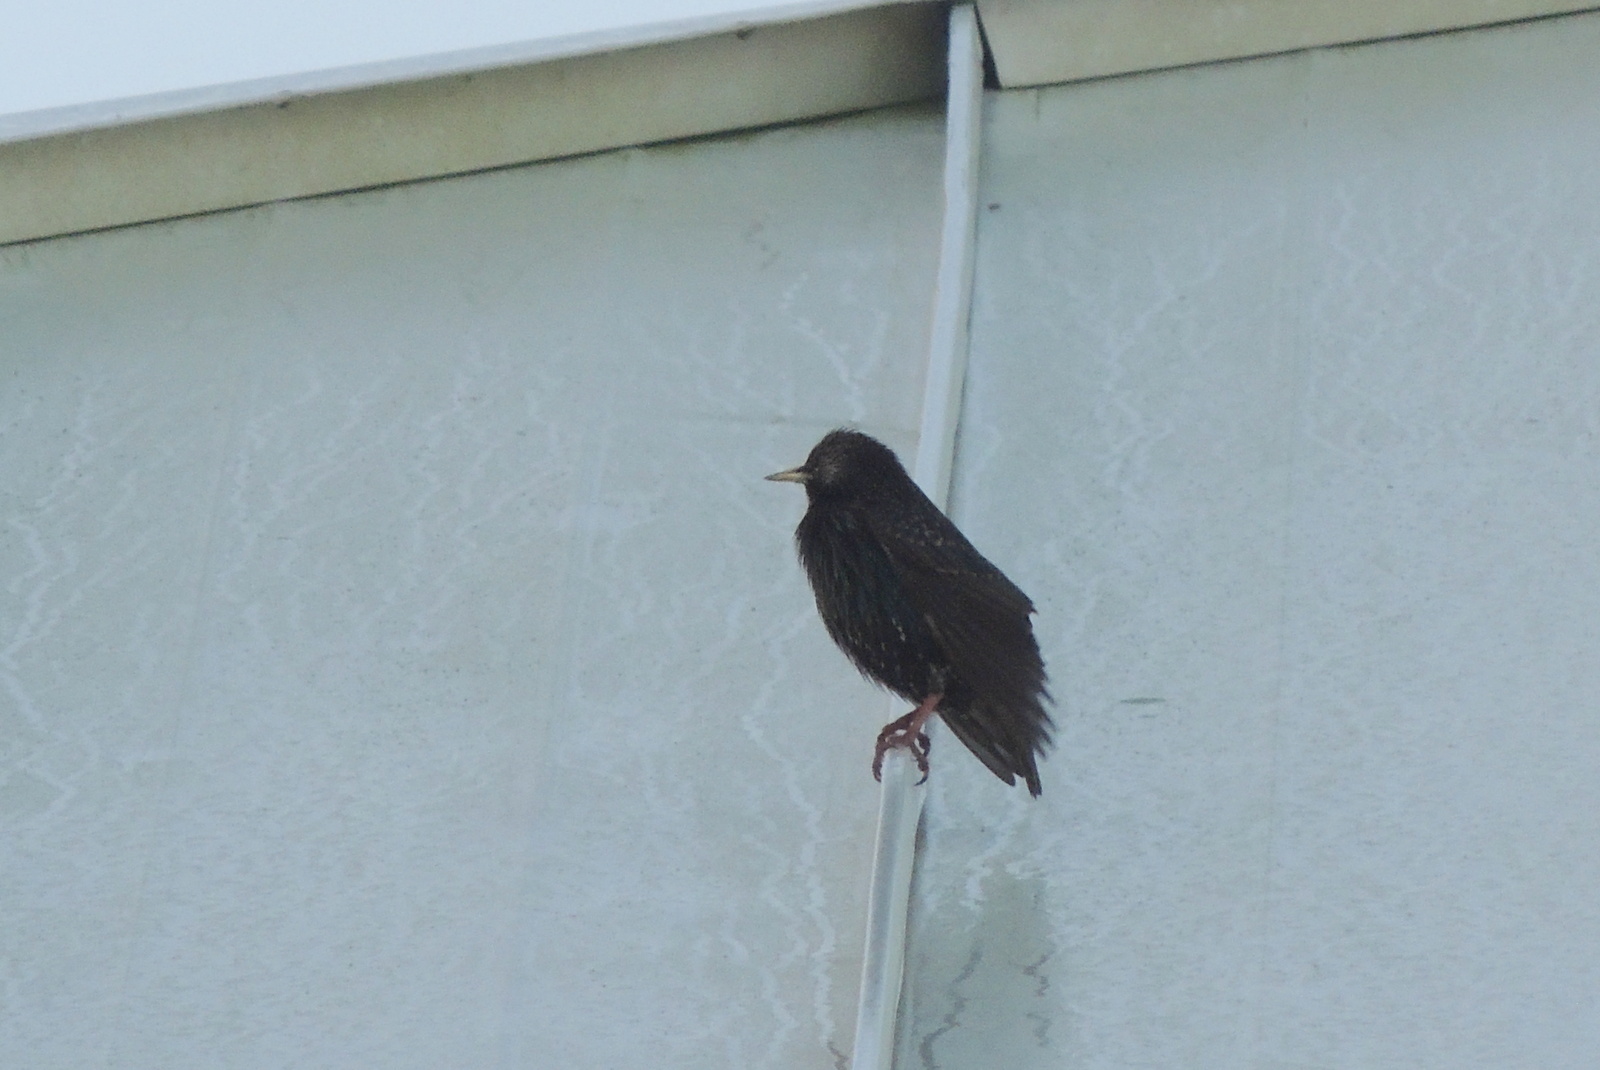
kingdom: Animalia
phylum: Chordata
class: Aves
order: Passeriformes
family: Sturnidae
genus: Sturnus
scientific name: Sturnus vulgaris
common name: Common starling
